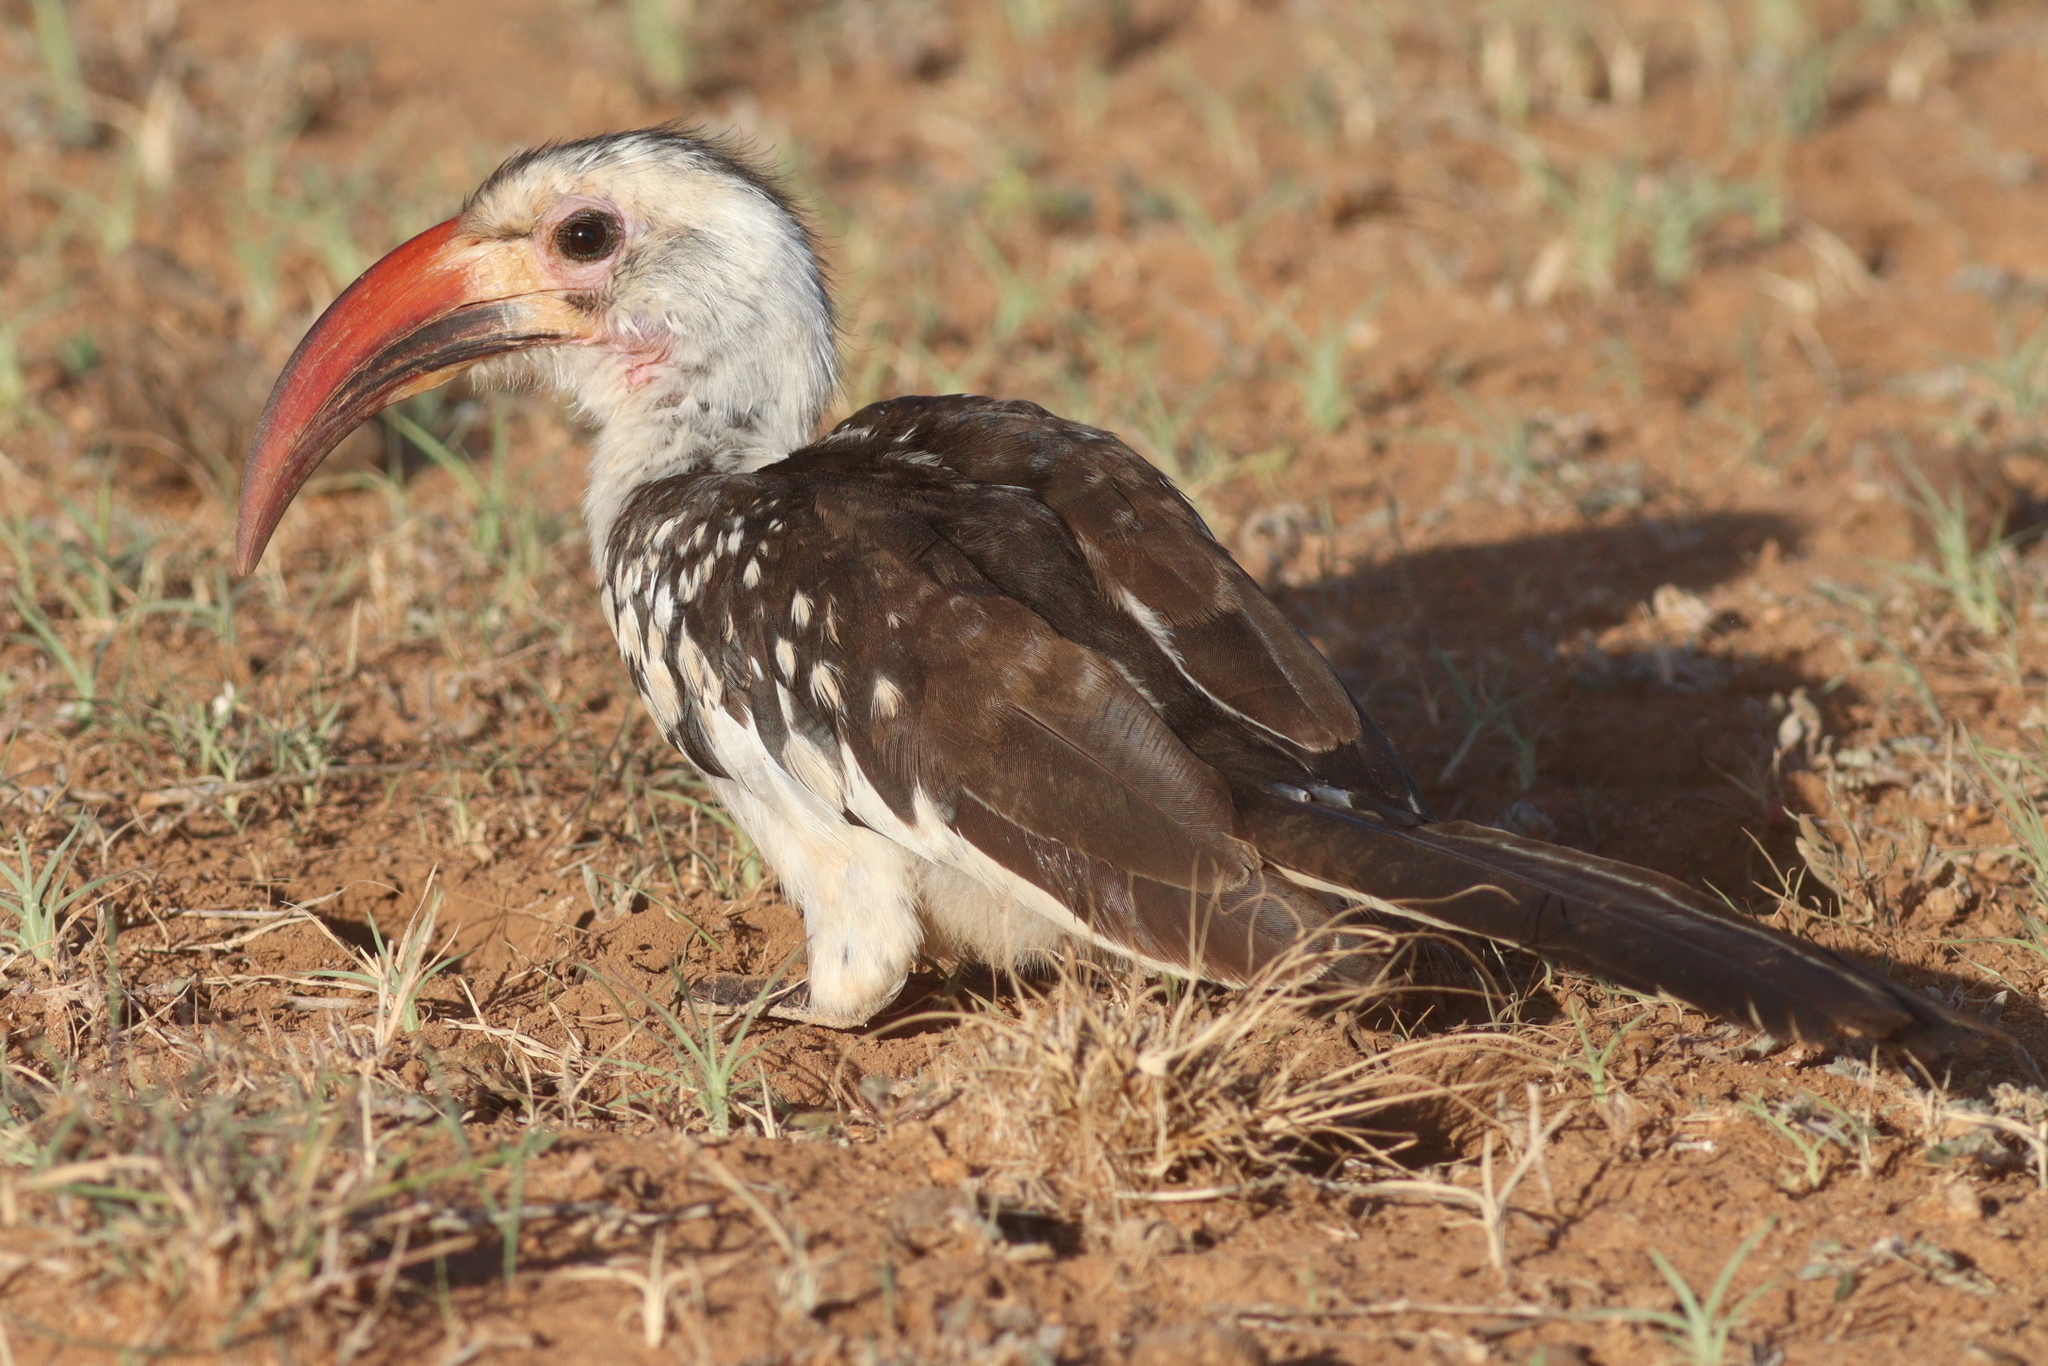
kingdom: Animalia
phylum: Chordata
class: Aves
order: Bucerotiformes
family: Bucerotidae
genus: Tockus
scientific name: Tockus erythrorhynchus
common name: Northern red-billed hornbill
